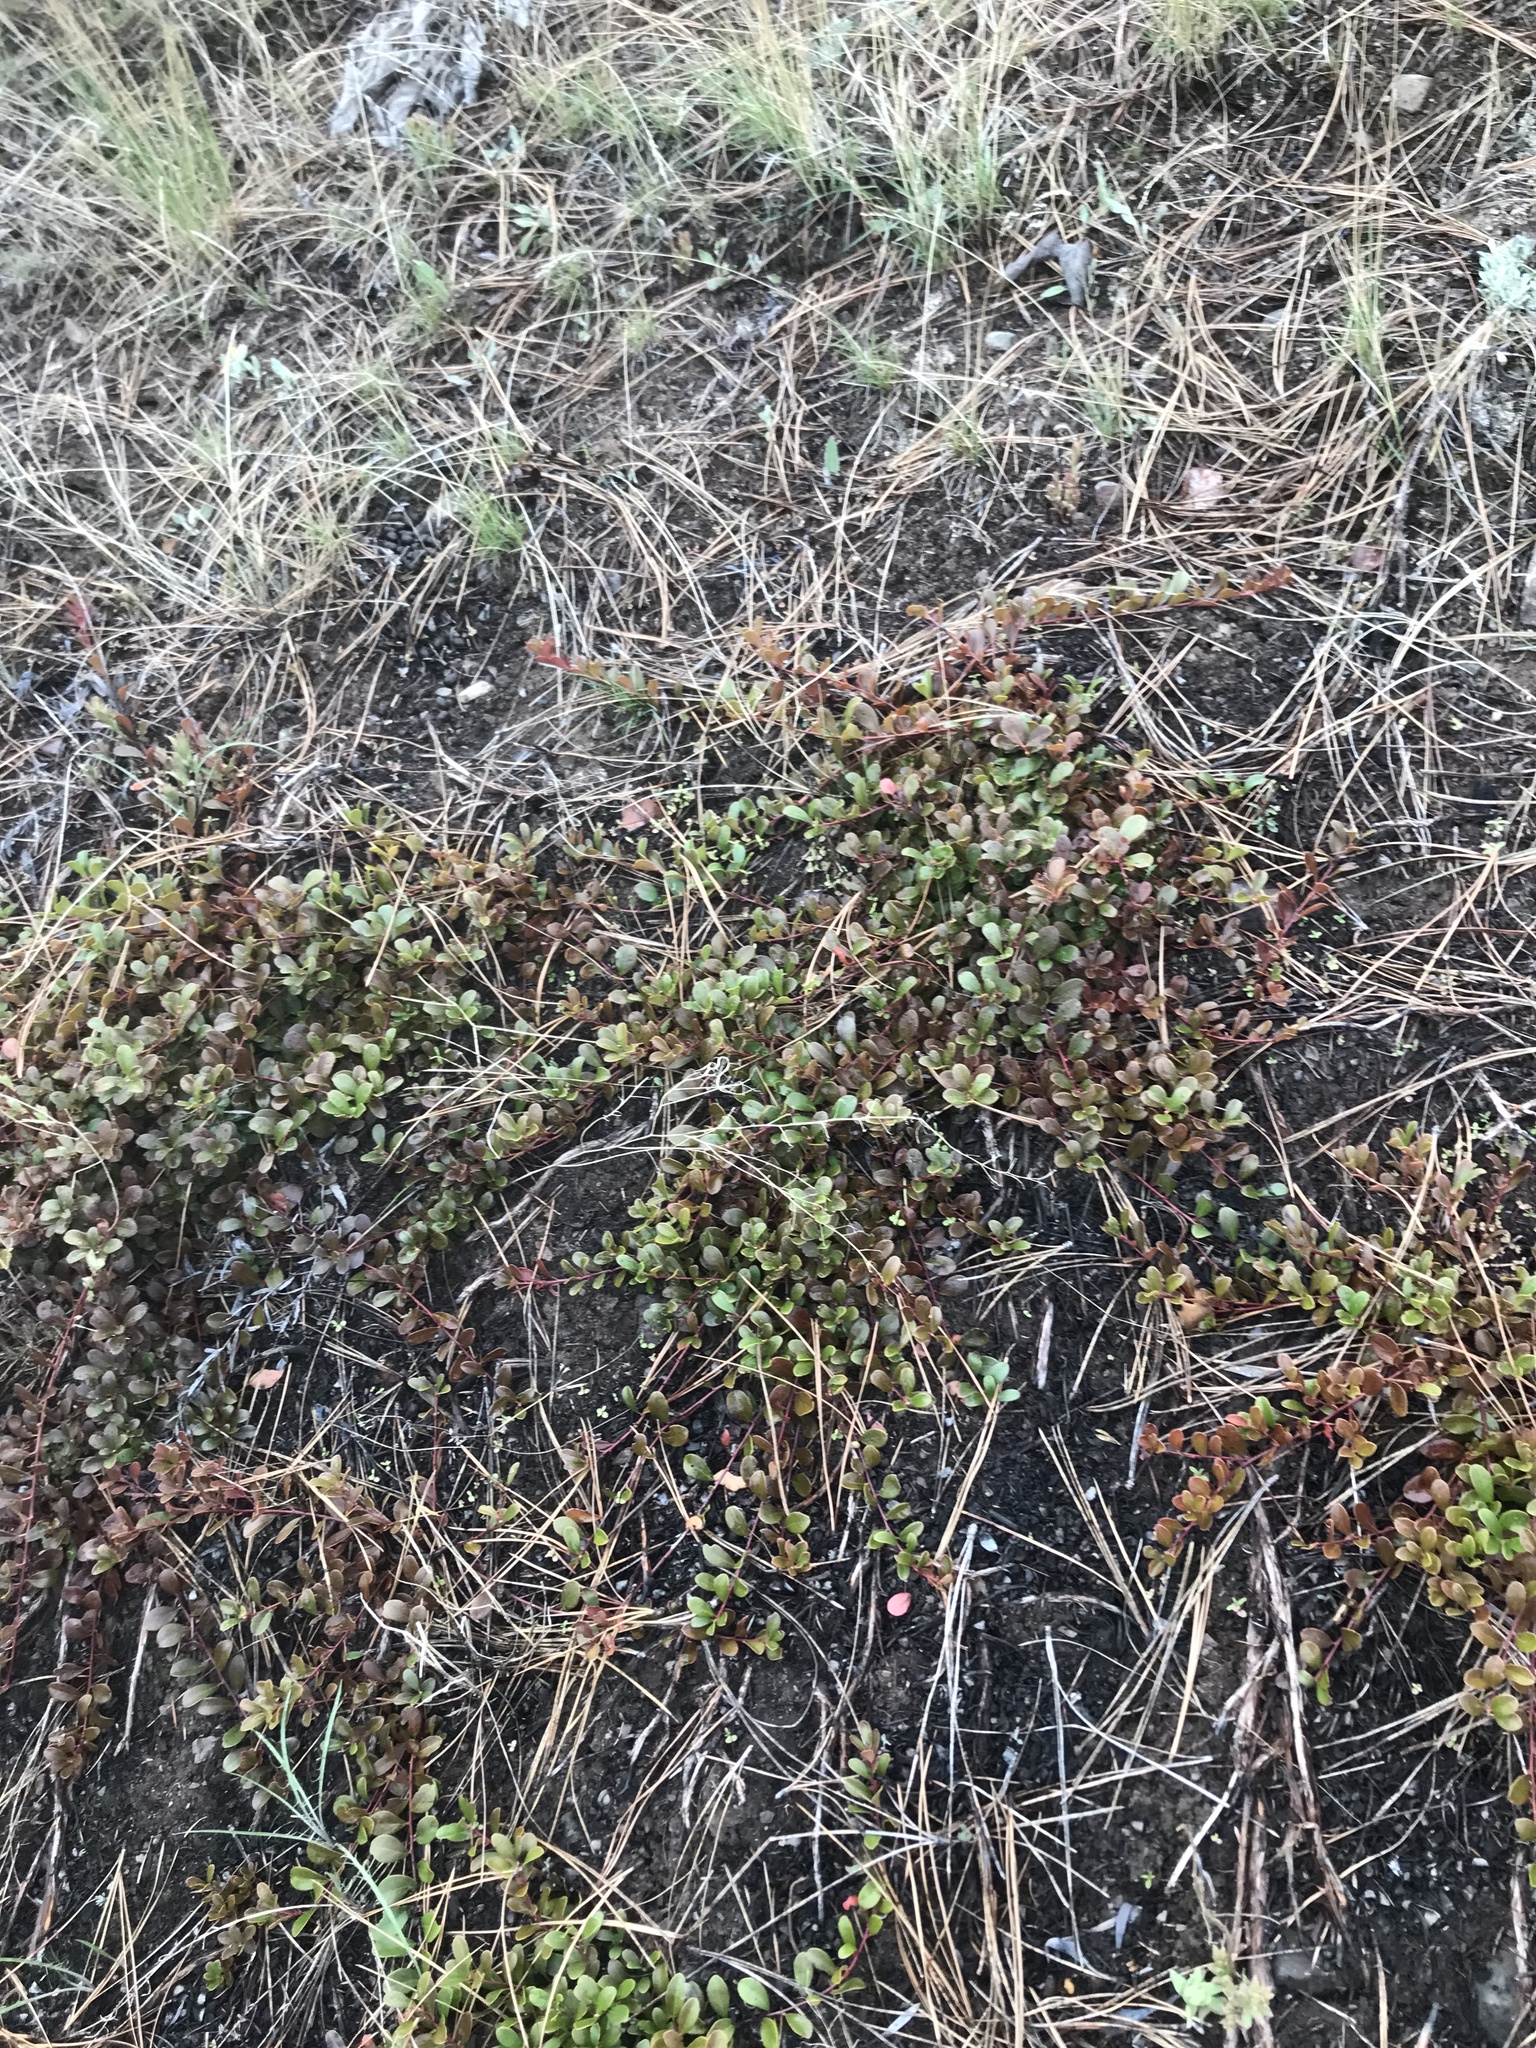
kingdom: Plantae
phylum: Tracheophyta
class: Magnoliopsida
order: Ericales
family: Ericaceae
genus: Arctostaphylos
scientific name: Arctostaphylos uva-ursi
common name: Bearberry
